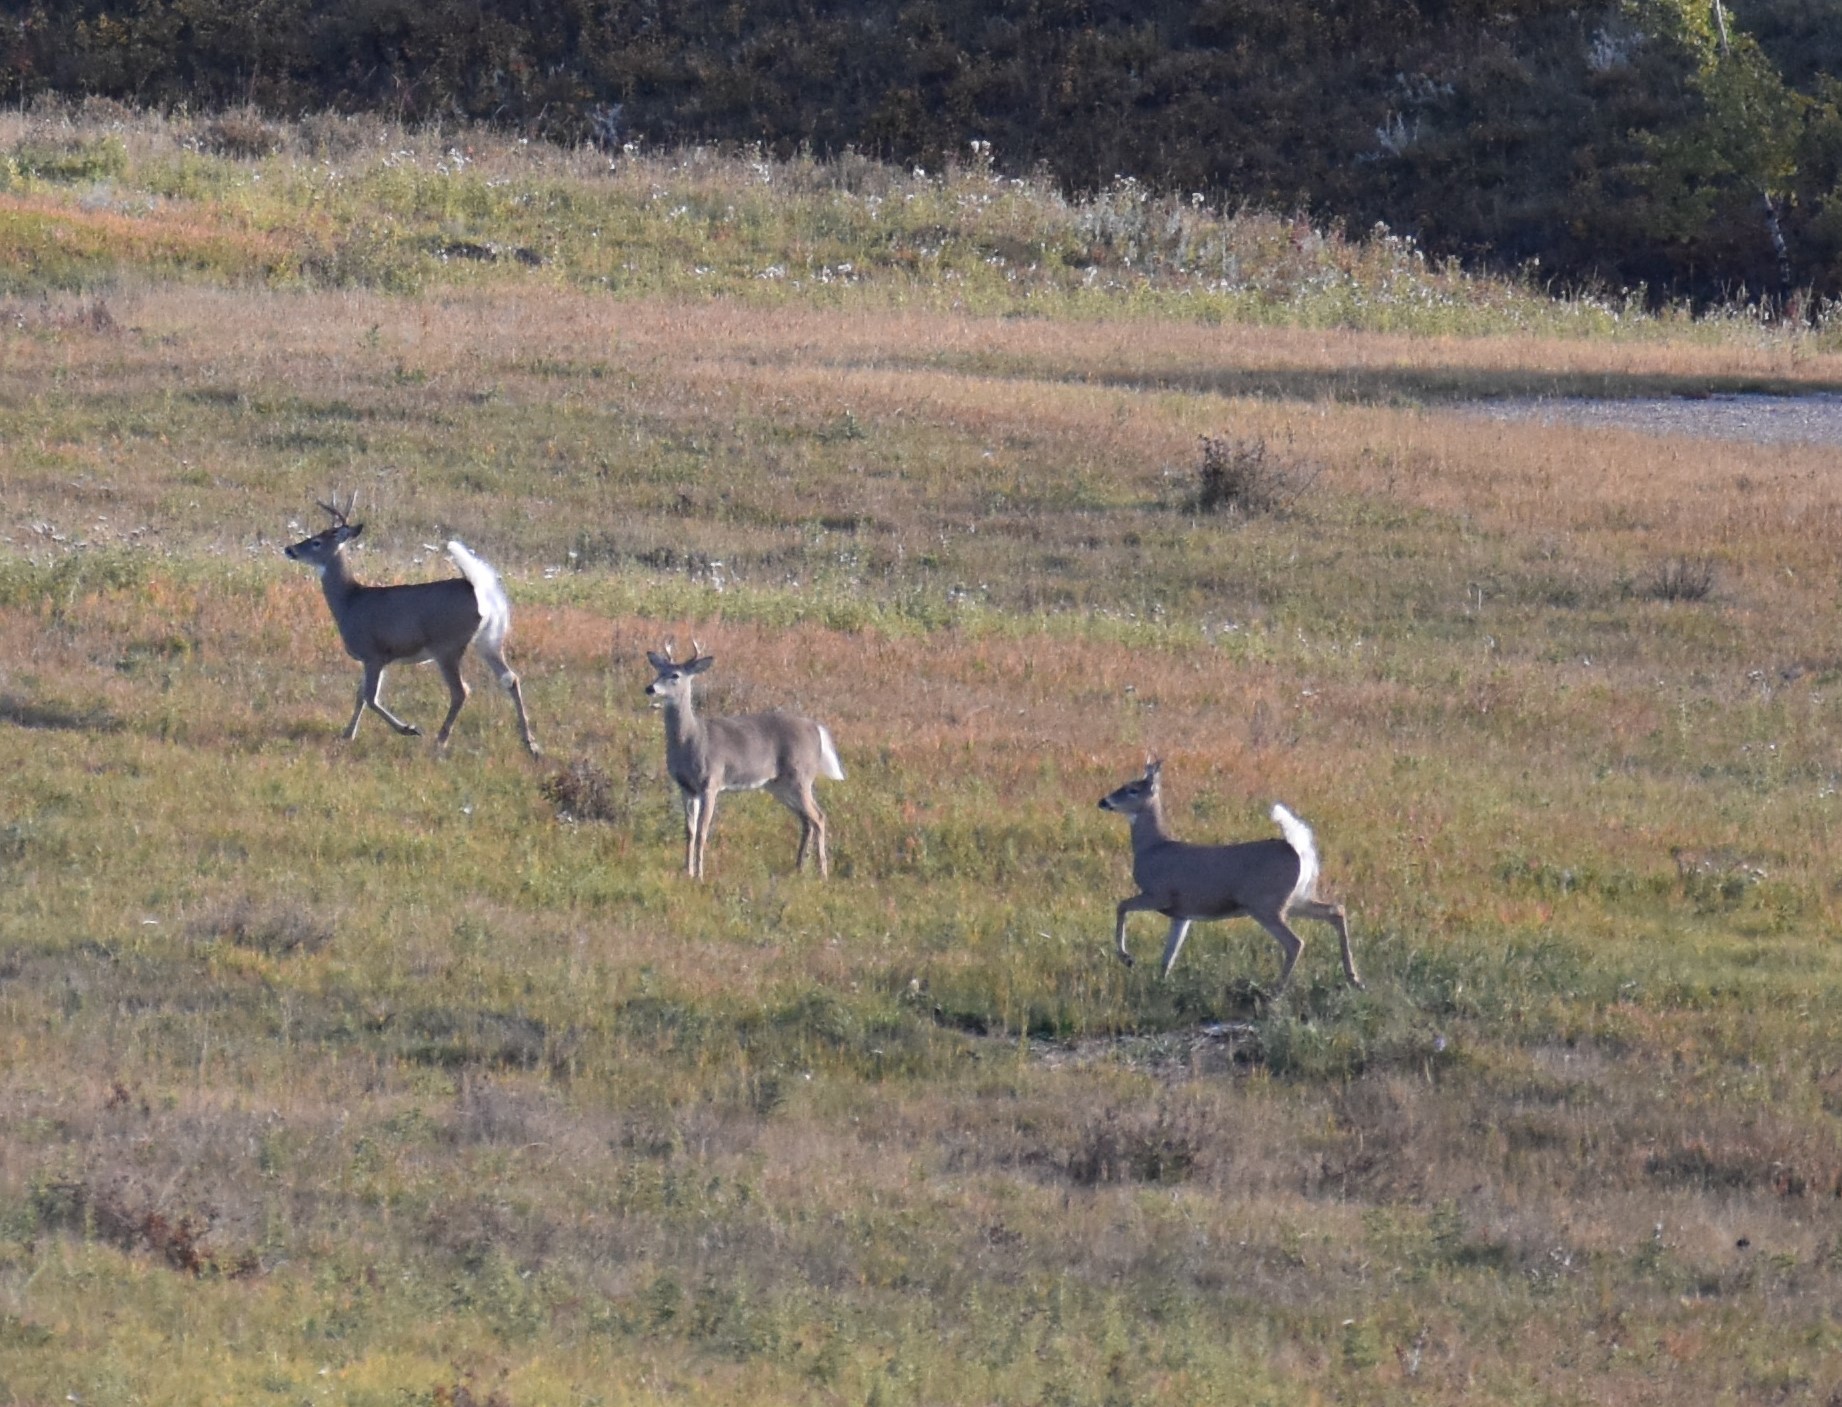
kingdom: Animalia
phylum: Chordata
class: Mammalia
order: Artiodactyla
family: Cervidae
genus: Odocoileus
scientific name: Odocoileus virginianus
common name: White-tailed deer
